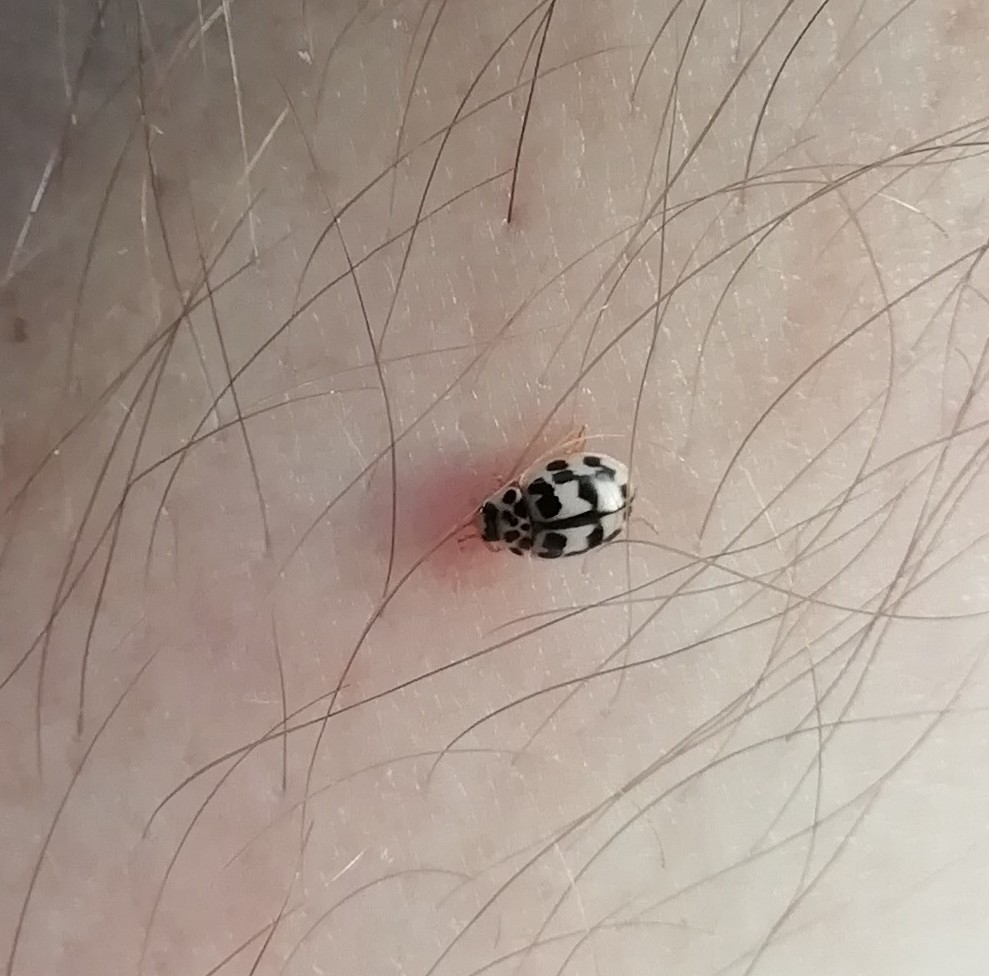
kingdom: Animalia
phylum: Arthropoda
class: Insecta
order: Coleoptera
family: Coccinellidae
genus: Oenopia
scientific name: Oenopia conglobata
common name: Ladybird beetle
